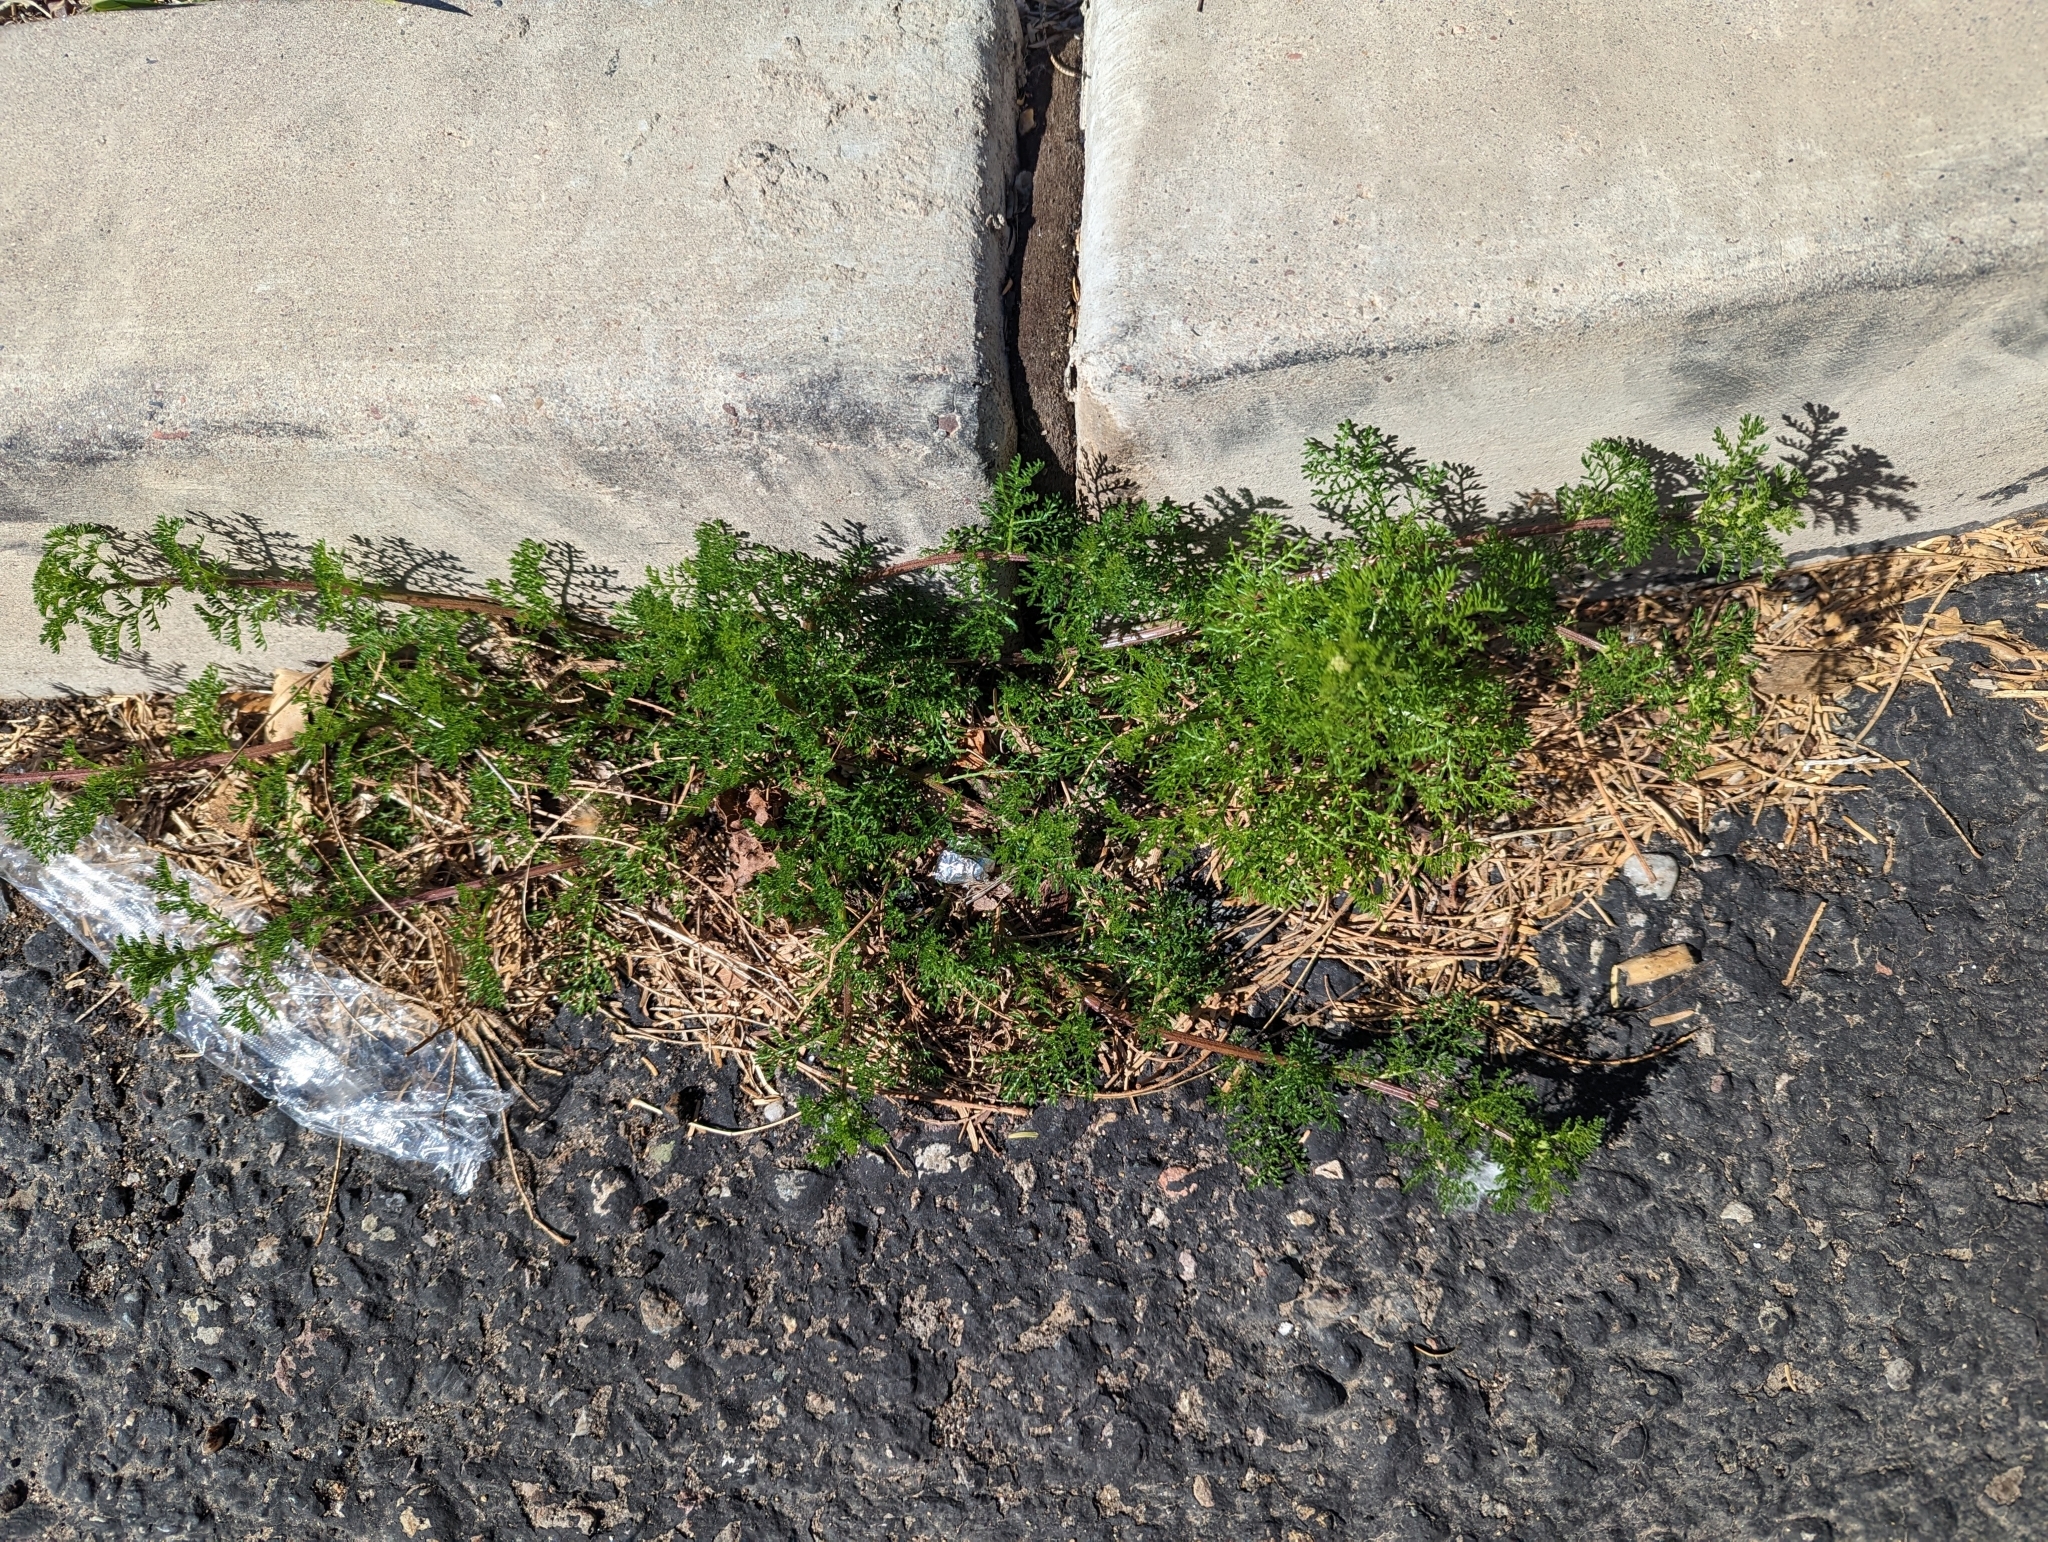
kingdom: Plantae
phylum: Tracheophyta
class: Magnoliopsida
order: Asterales
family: Asteraceae
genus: Oncosiphon
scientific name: Oncosiphon pilulifer
